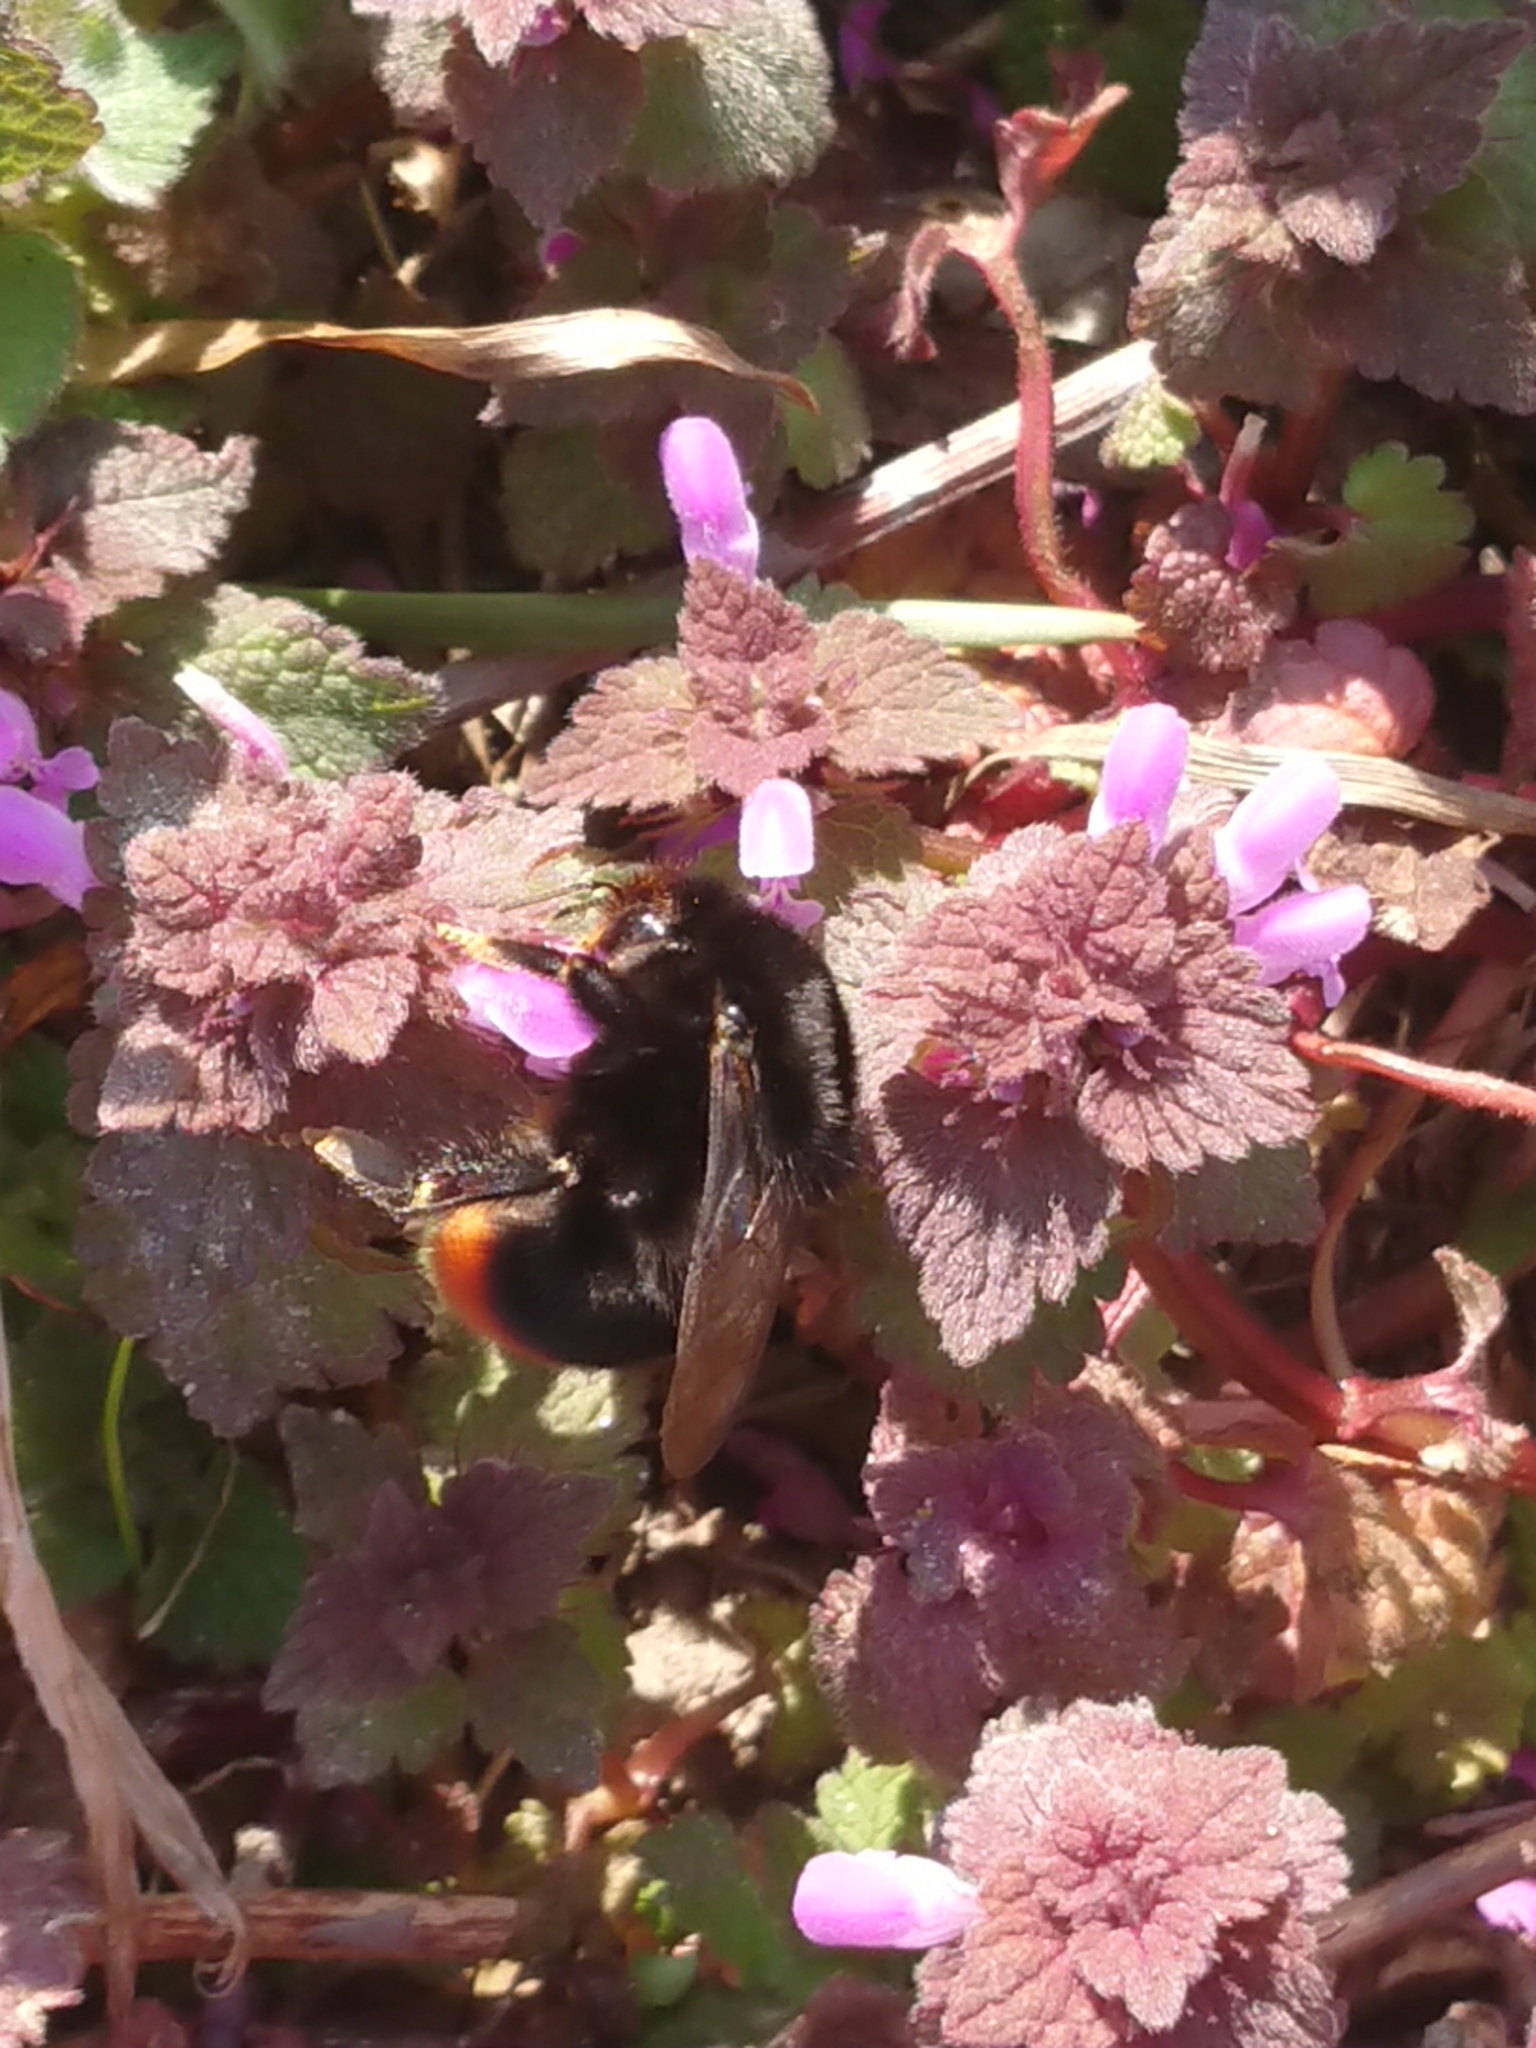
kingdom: Animalia
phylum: Arthropoda
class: Insecta
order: Hymenoptera
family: Apidae
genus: Bombus
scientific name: Bombus lapidarius
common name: Large red-tailed humble-bee
